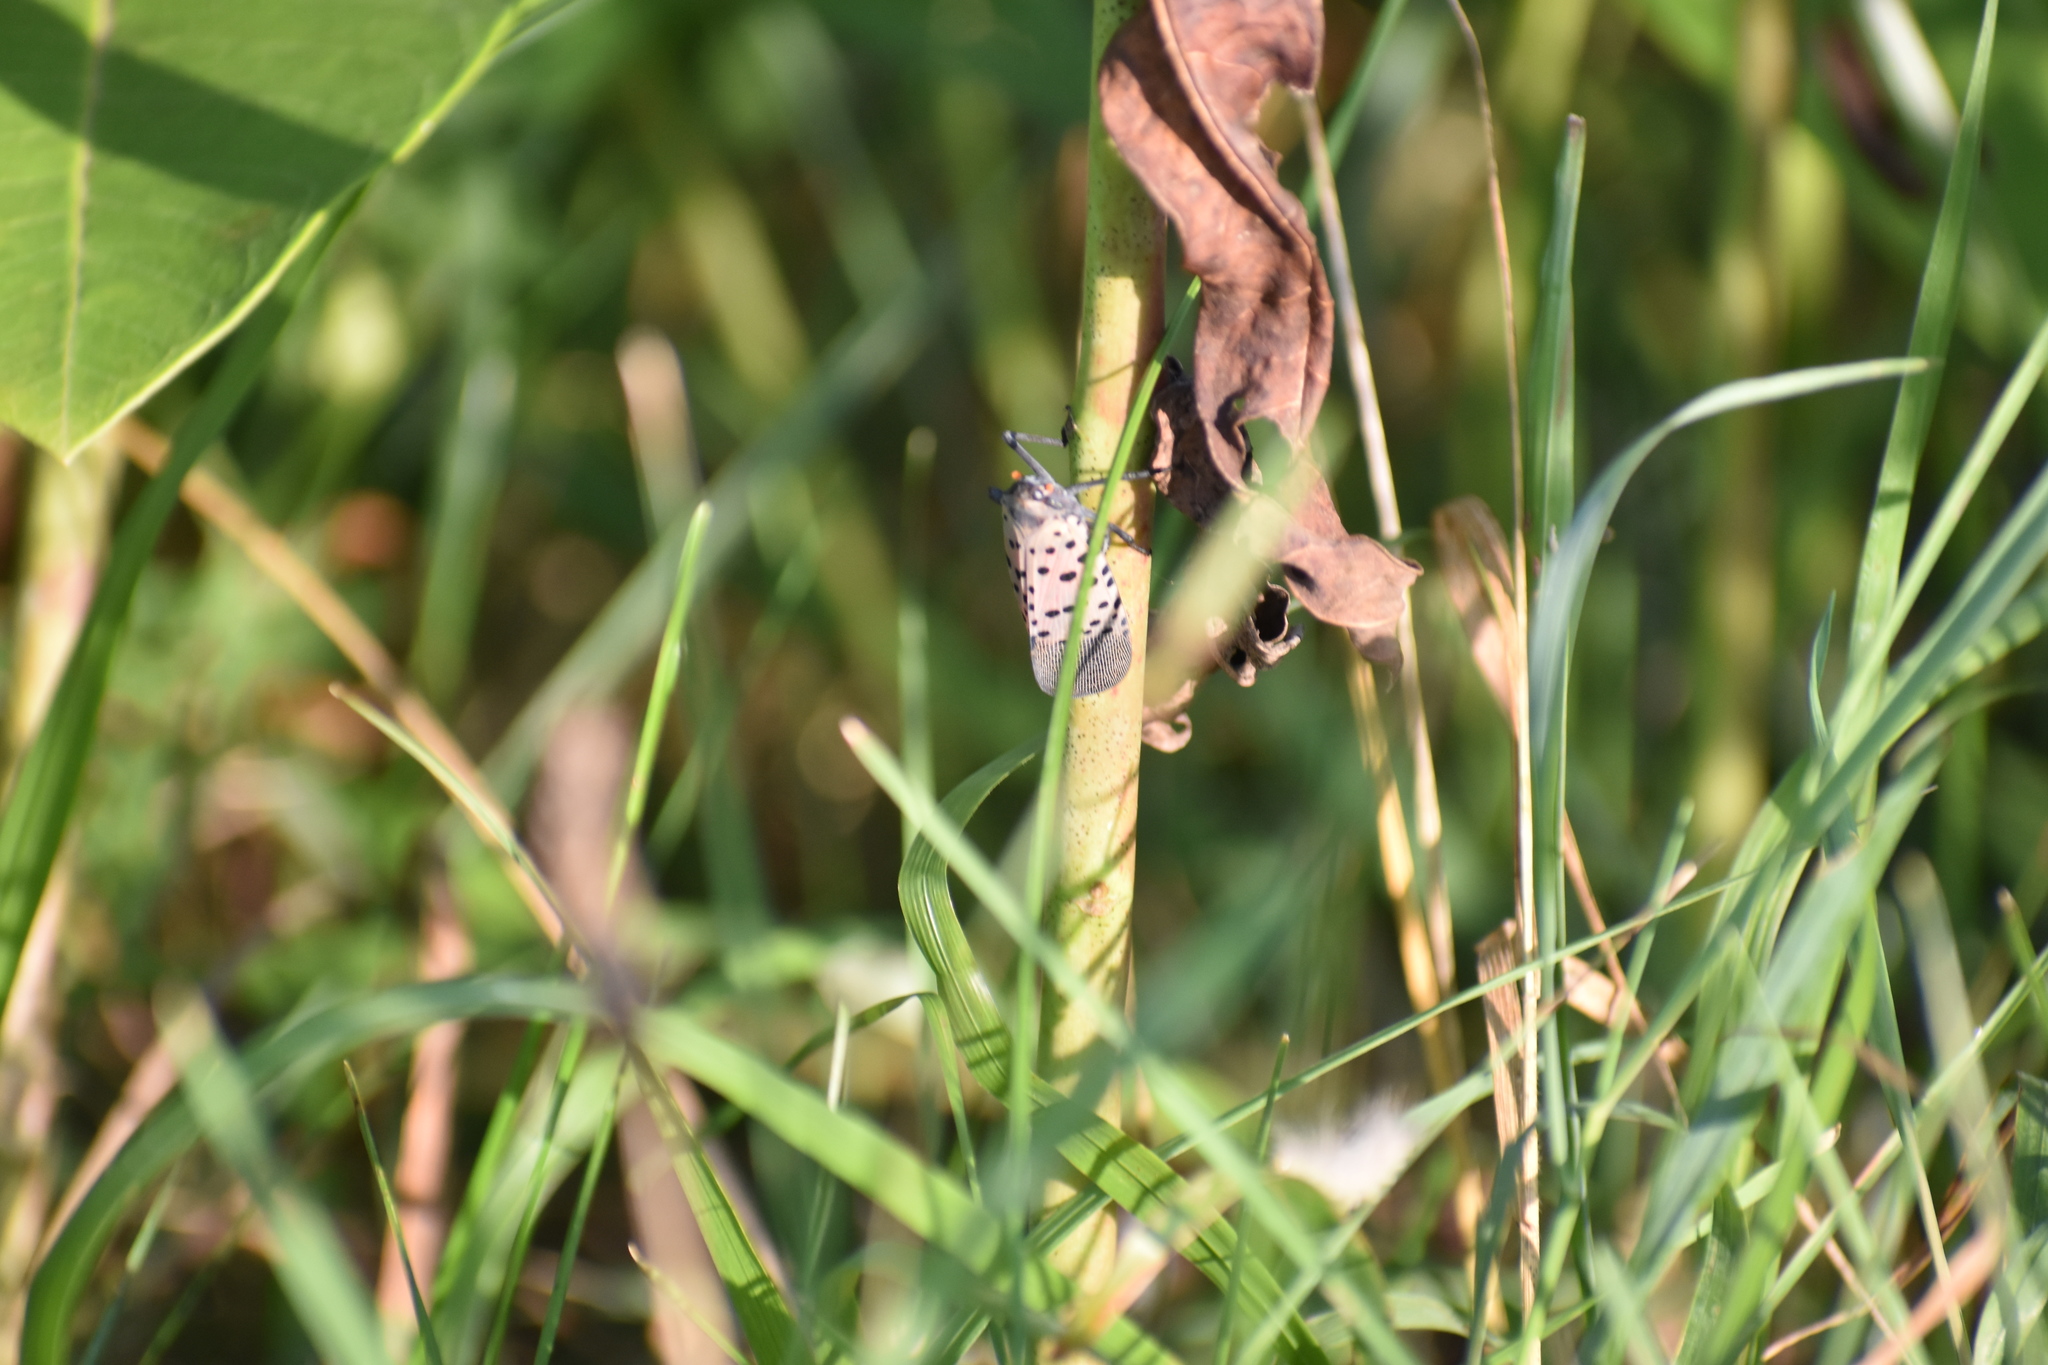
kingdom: Animalia
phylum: Arthropoda
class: Insecta
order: Hemiptera
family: Fulgoridae
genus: Lycorma
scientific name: Lycorma delicatula
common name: Spotted lanternfly
